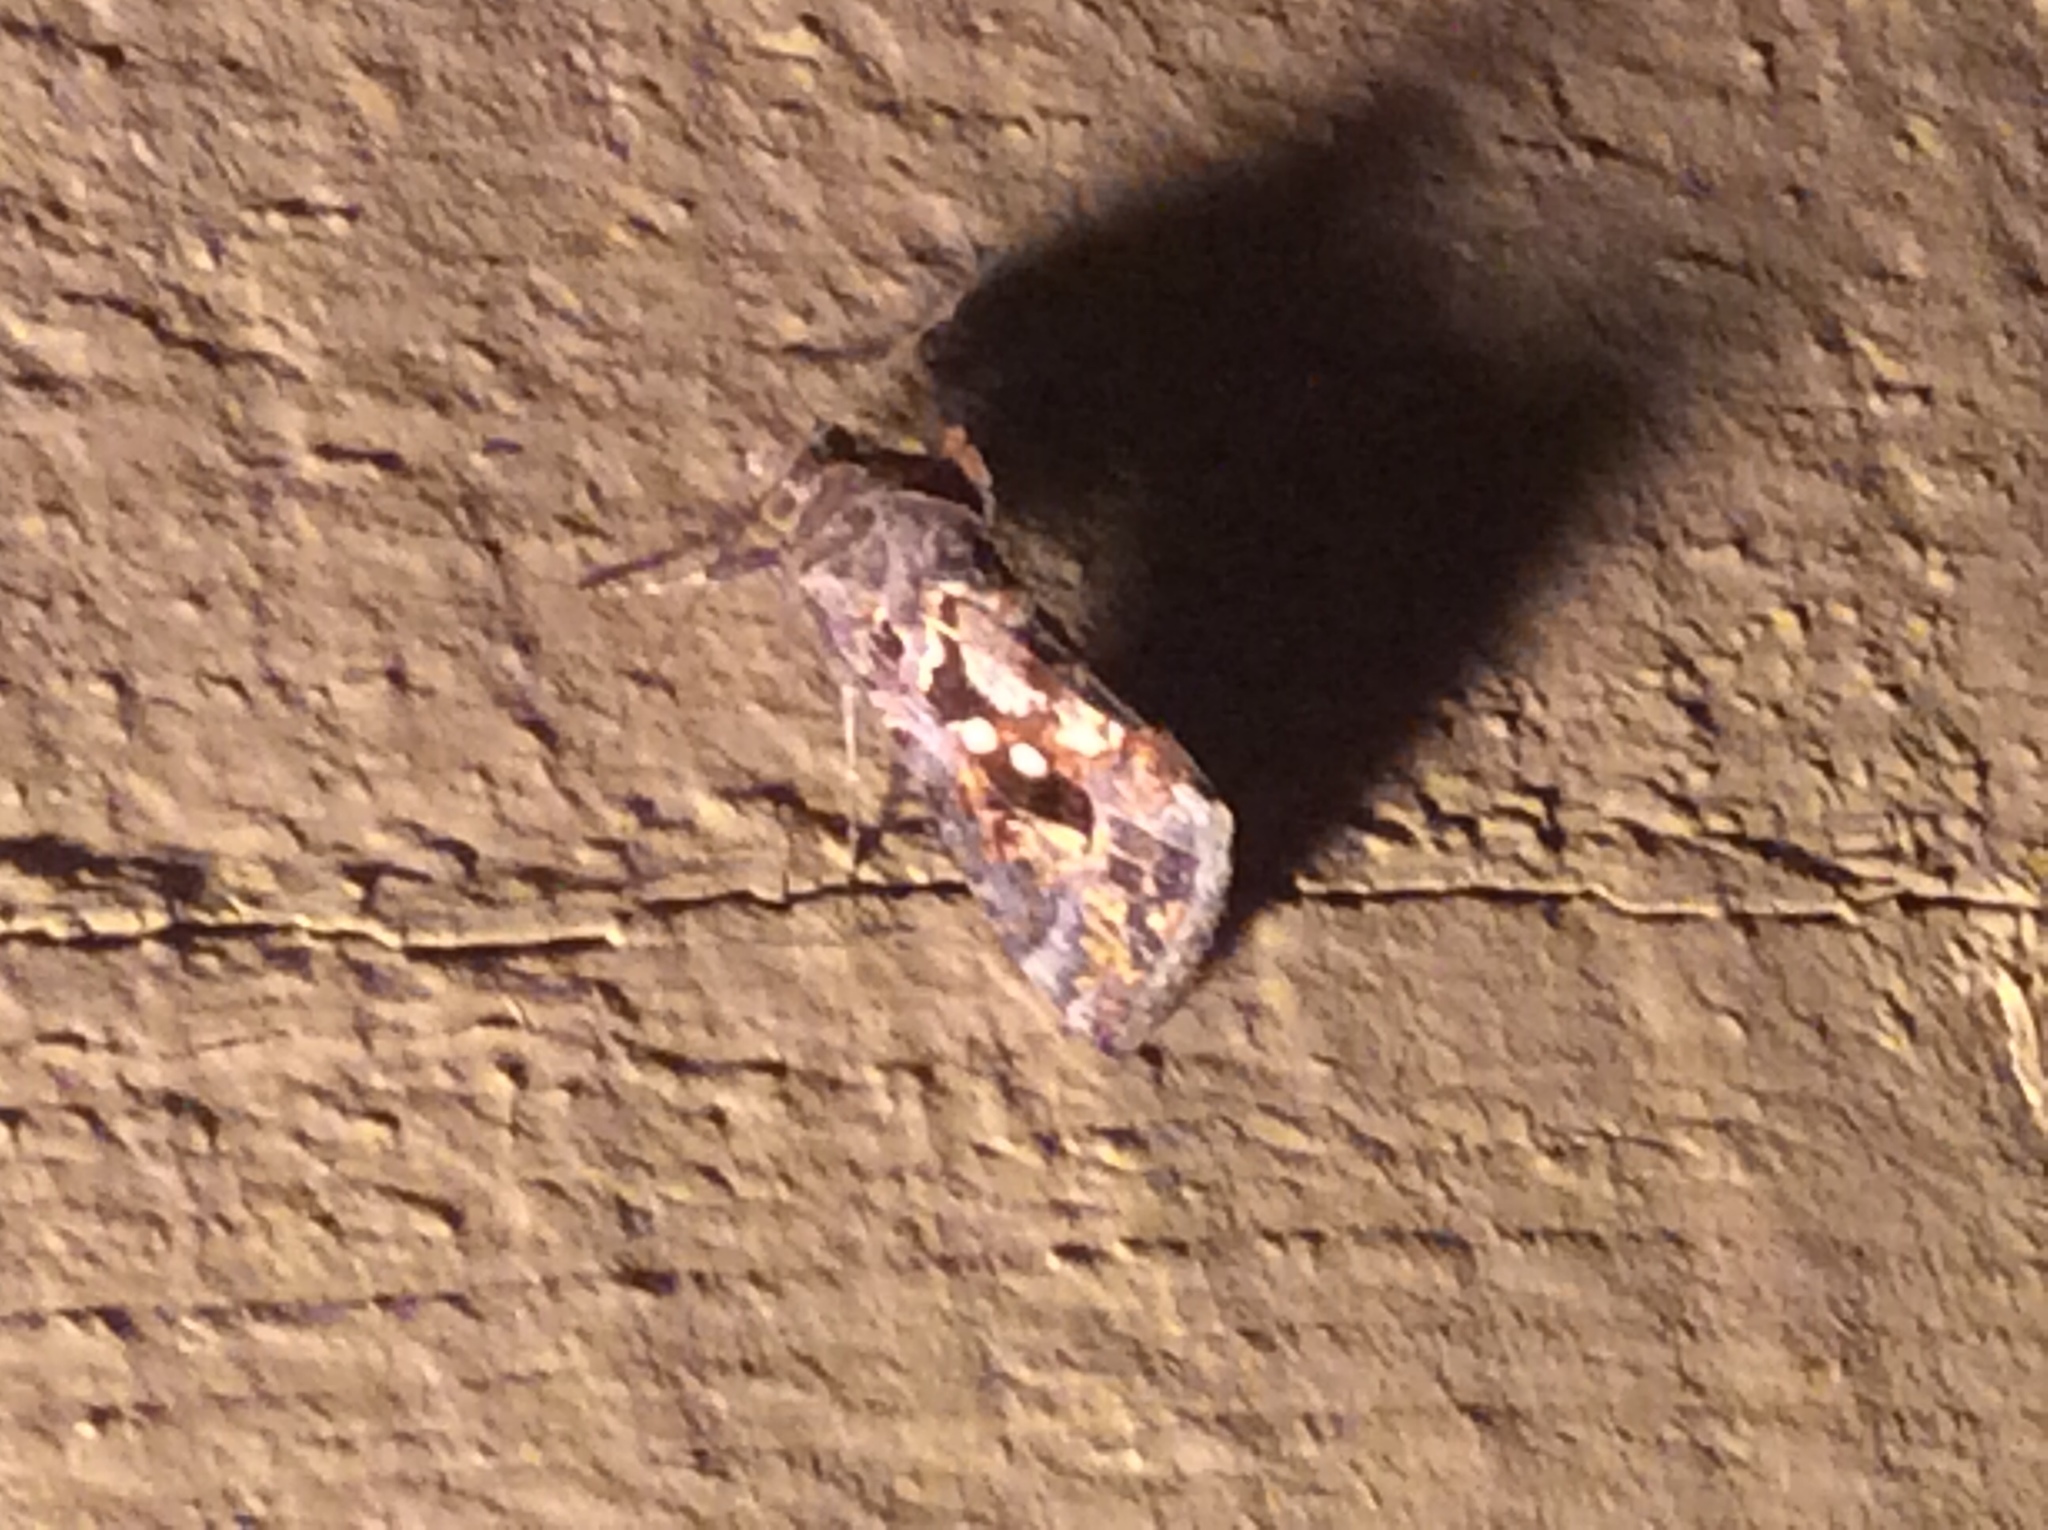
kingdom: Animalia
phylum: Arthropoda
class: Insecta
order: Lepidoptera
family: Noctuidae
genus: Chrysodeixis
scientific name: Chrysodeixis includens
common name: Cutworm moth
